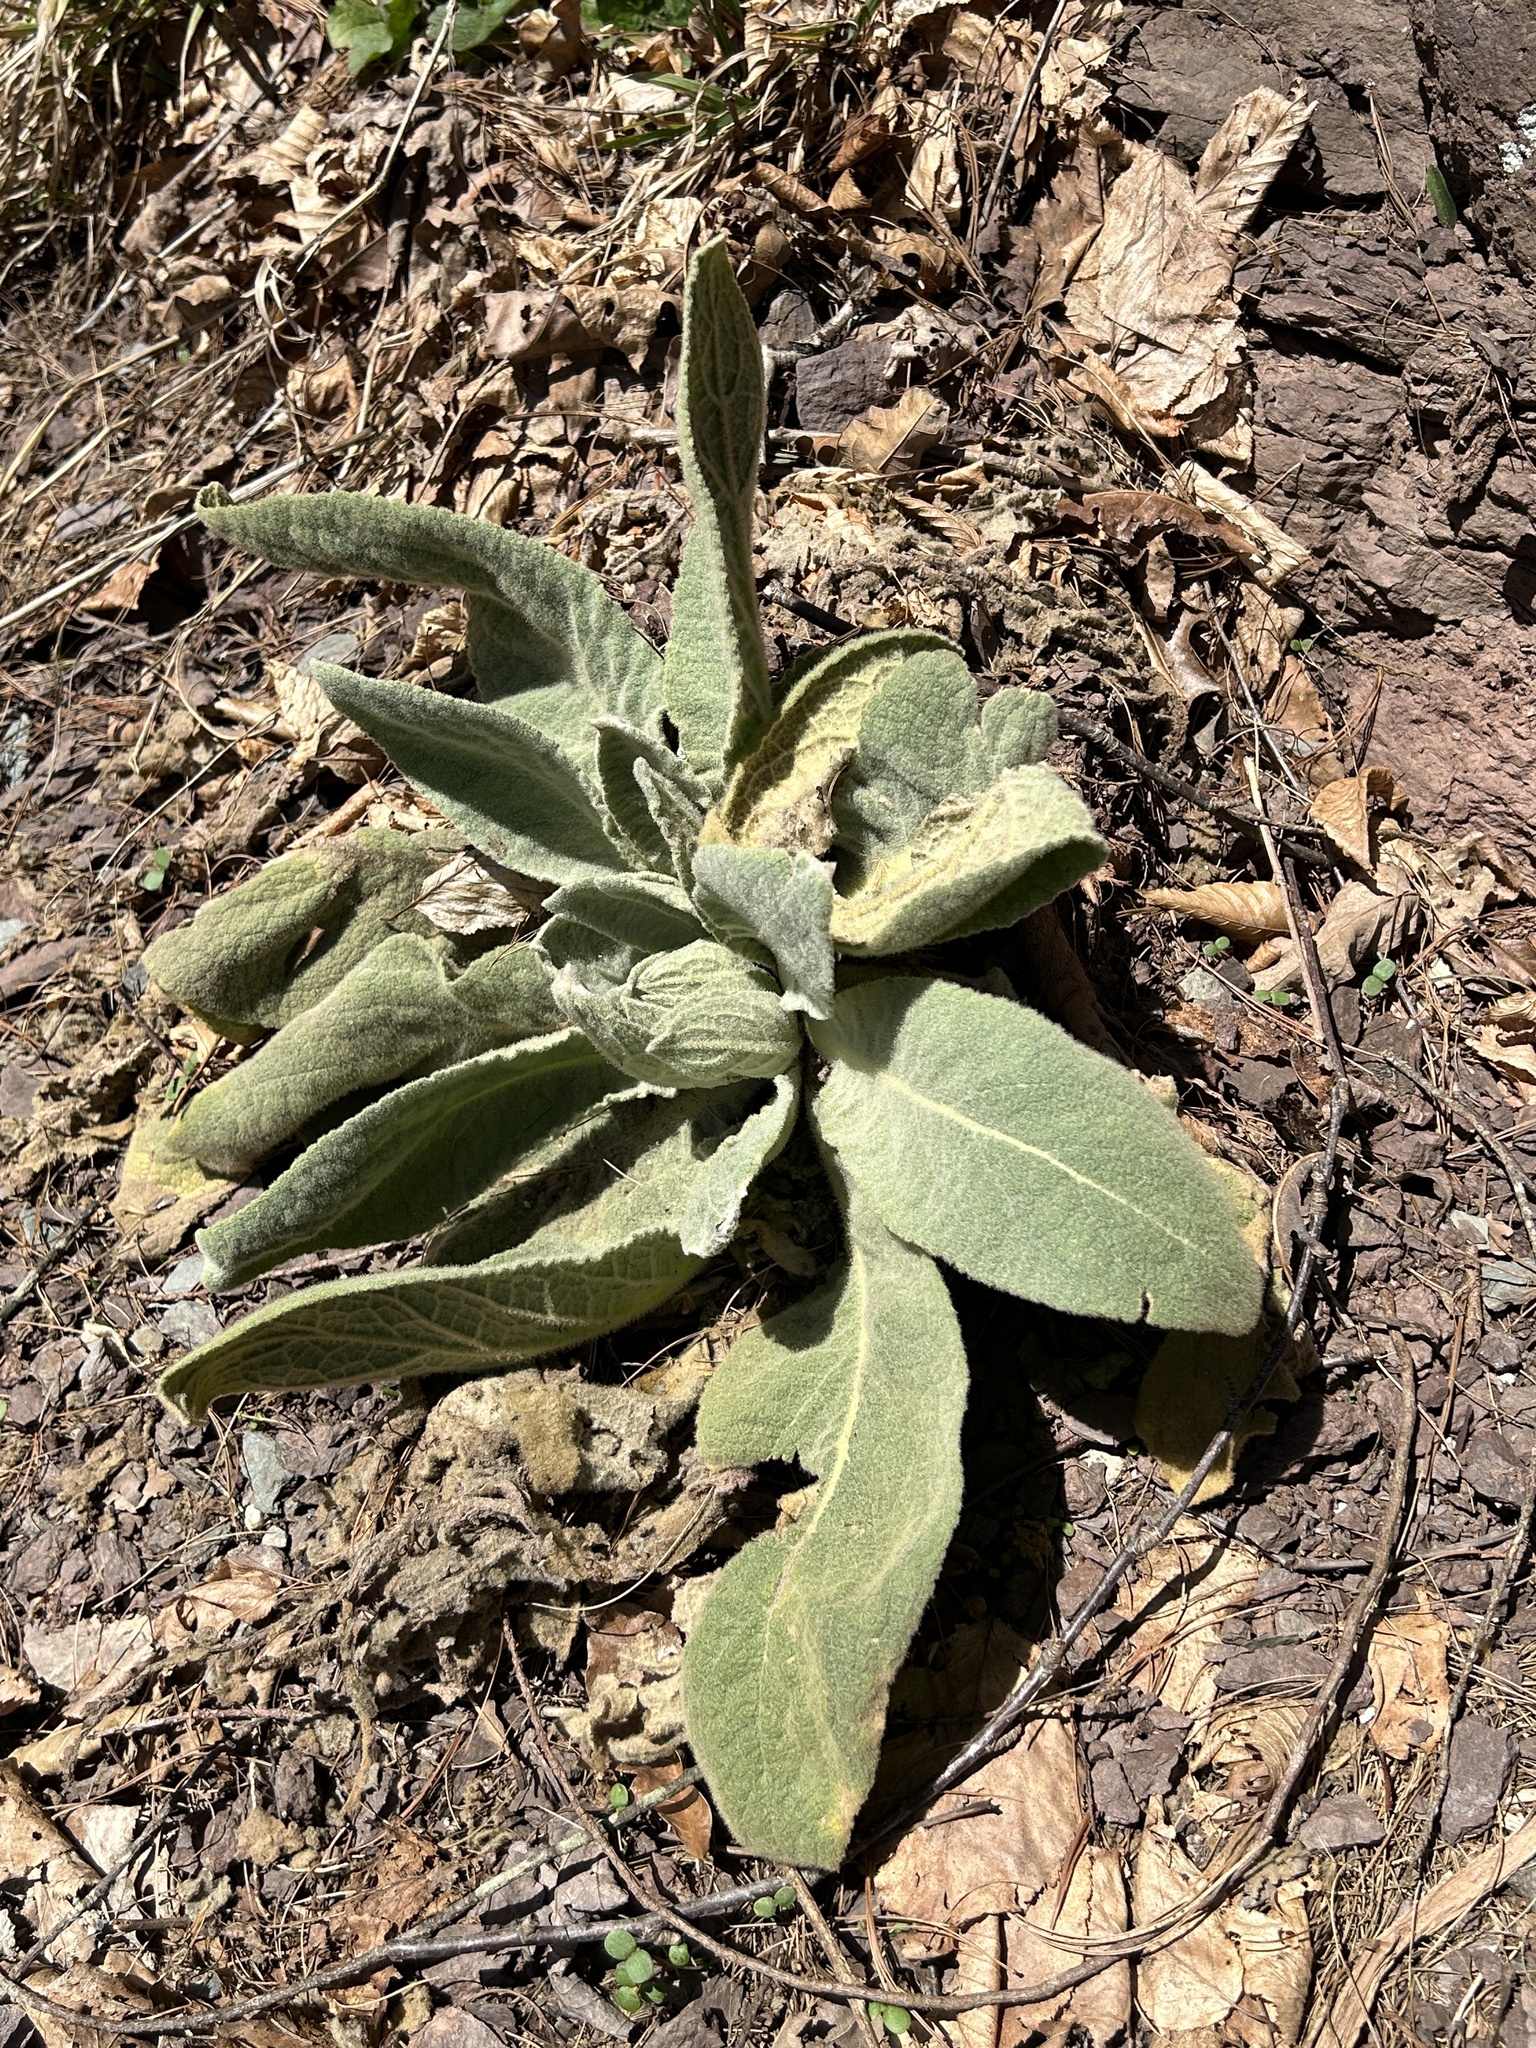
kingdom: Plantae
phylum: Tracheophyta
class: Magnoliopsida
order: Lamiales
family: Scrophulariaceae
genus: Verbascum
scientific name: Verbascum thapsus
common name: Common mullein
